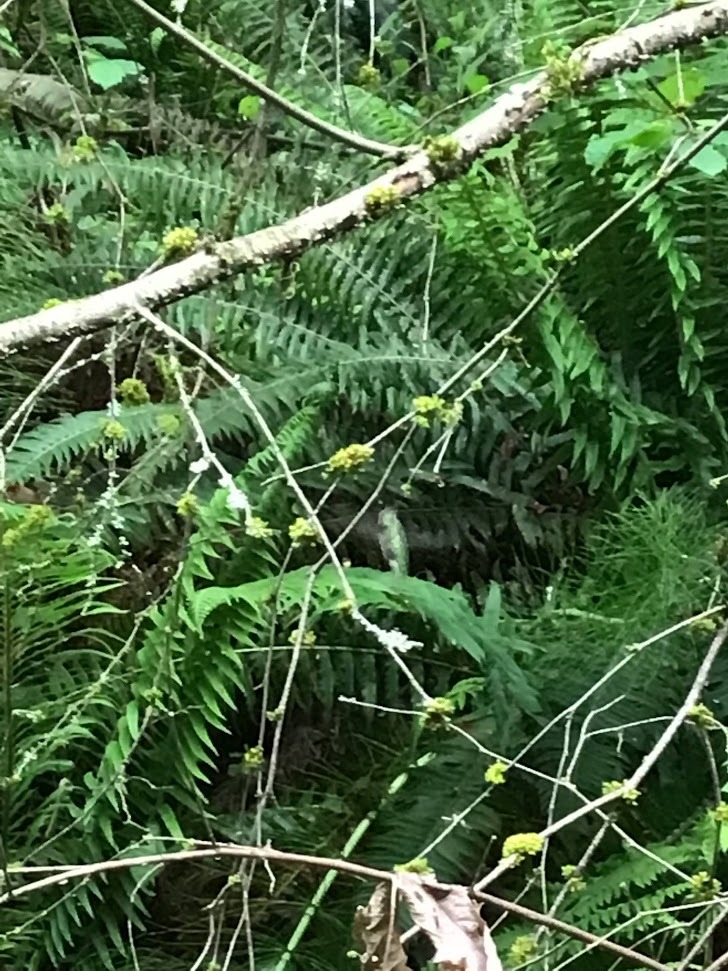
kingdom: Animalia
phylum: Chordata
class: Aves
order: Apodiformes
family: Trochilidae
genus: Calypte
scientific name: Calypte anna
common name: Anna's hummingbird
